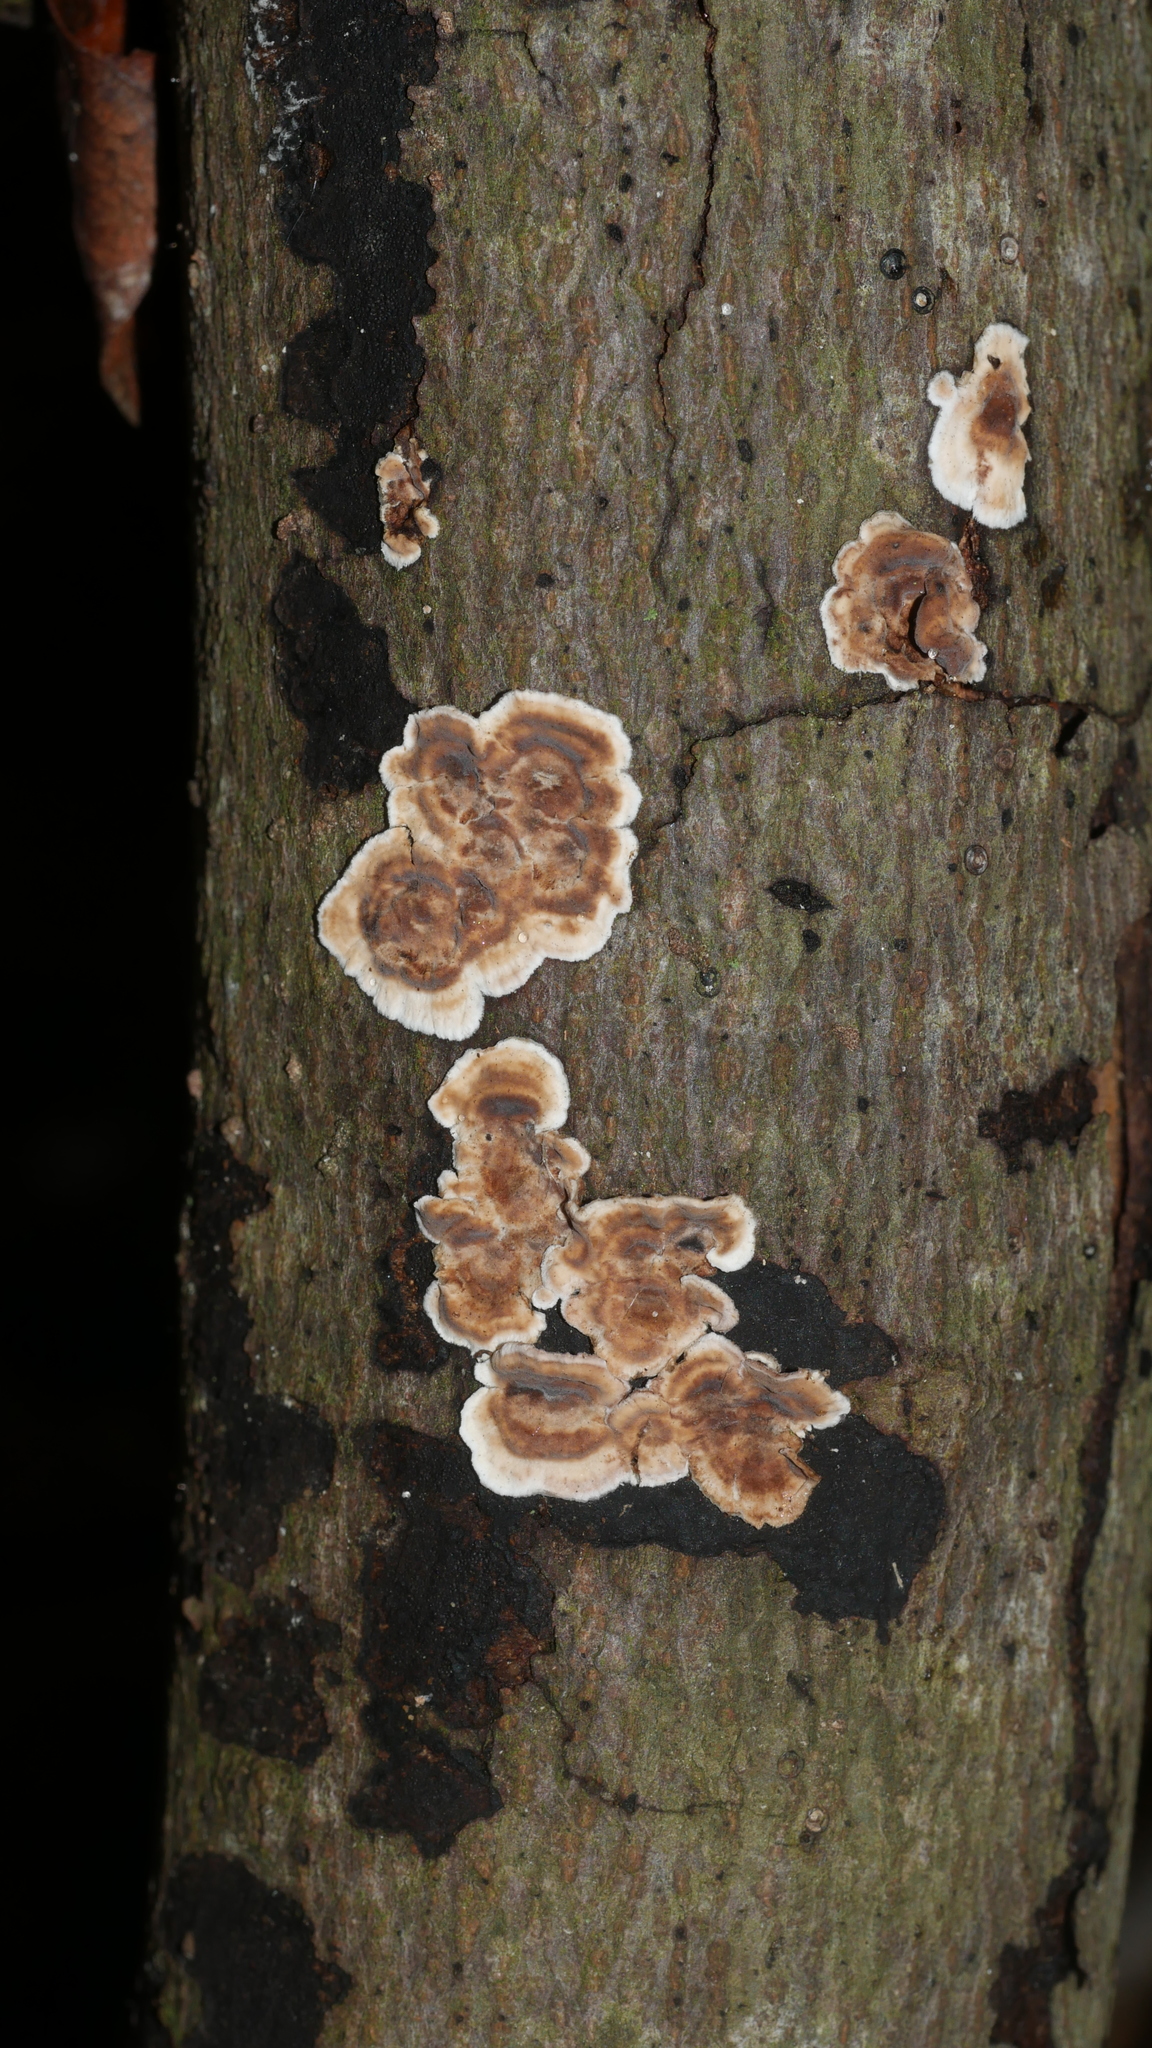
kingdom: Fungi
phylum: Basidiomycota
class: Agaricomycetes
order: Russulales
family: Peniophoraceae
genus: Peniophora
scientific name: Peniophora albobadia
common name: Giraffe spots
